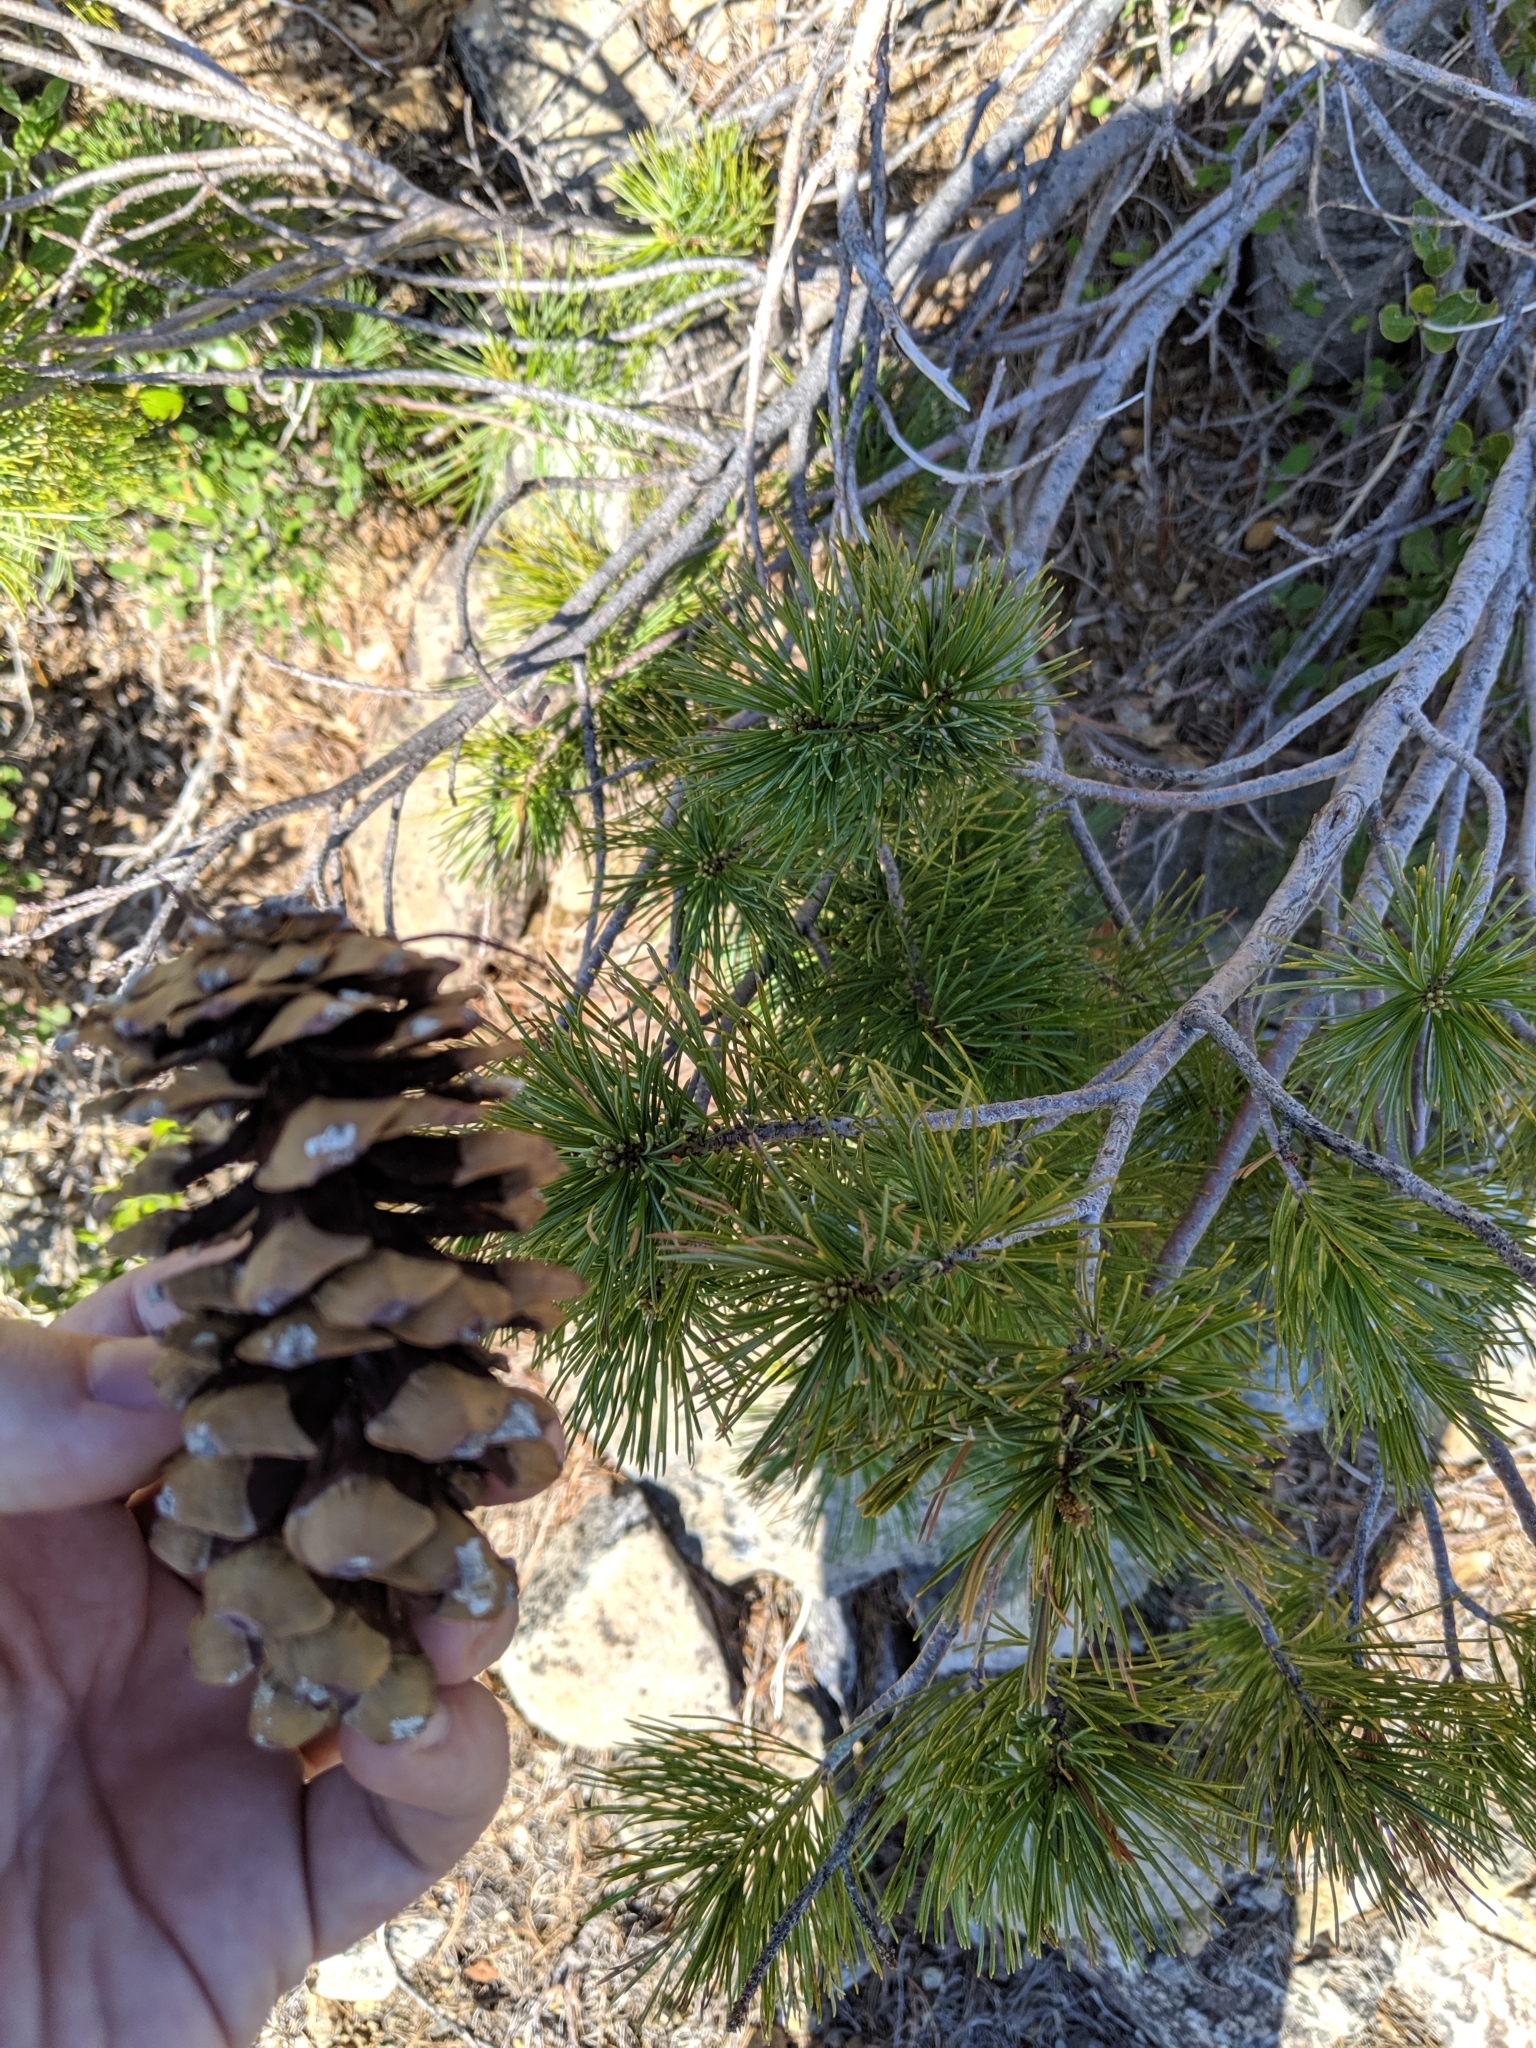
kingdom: Plantae
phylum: Tracheophyta
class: Pinopsida
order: Pinales
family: Pinaceae
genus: Pinus
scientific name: Pinus monticola
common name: Western white pine
